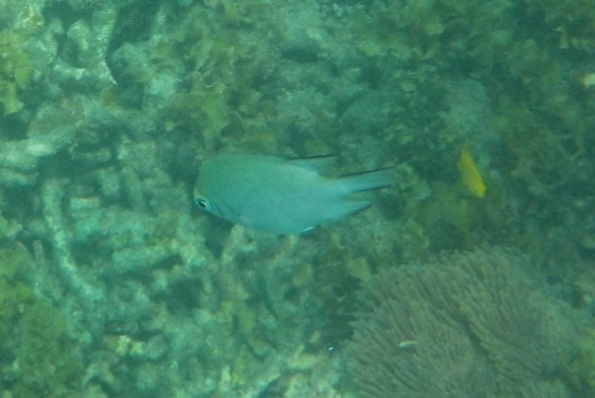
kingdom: Animalia
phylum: Chordata
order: Perciformes
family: Pomacentridae
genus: Amblyglyphidodon
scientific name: Amblyglyphidodon indicus
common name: Maldives damselfish
